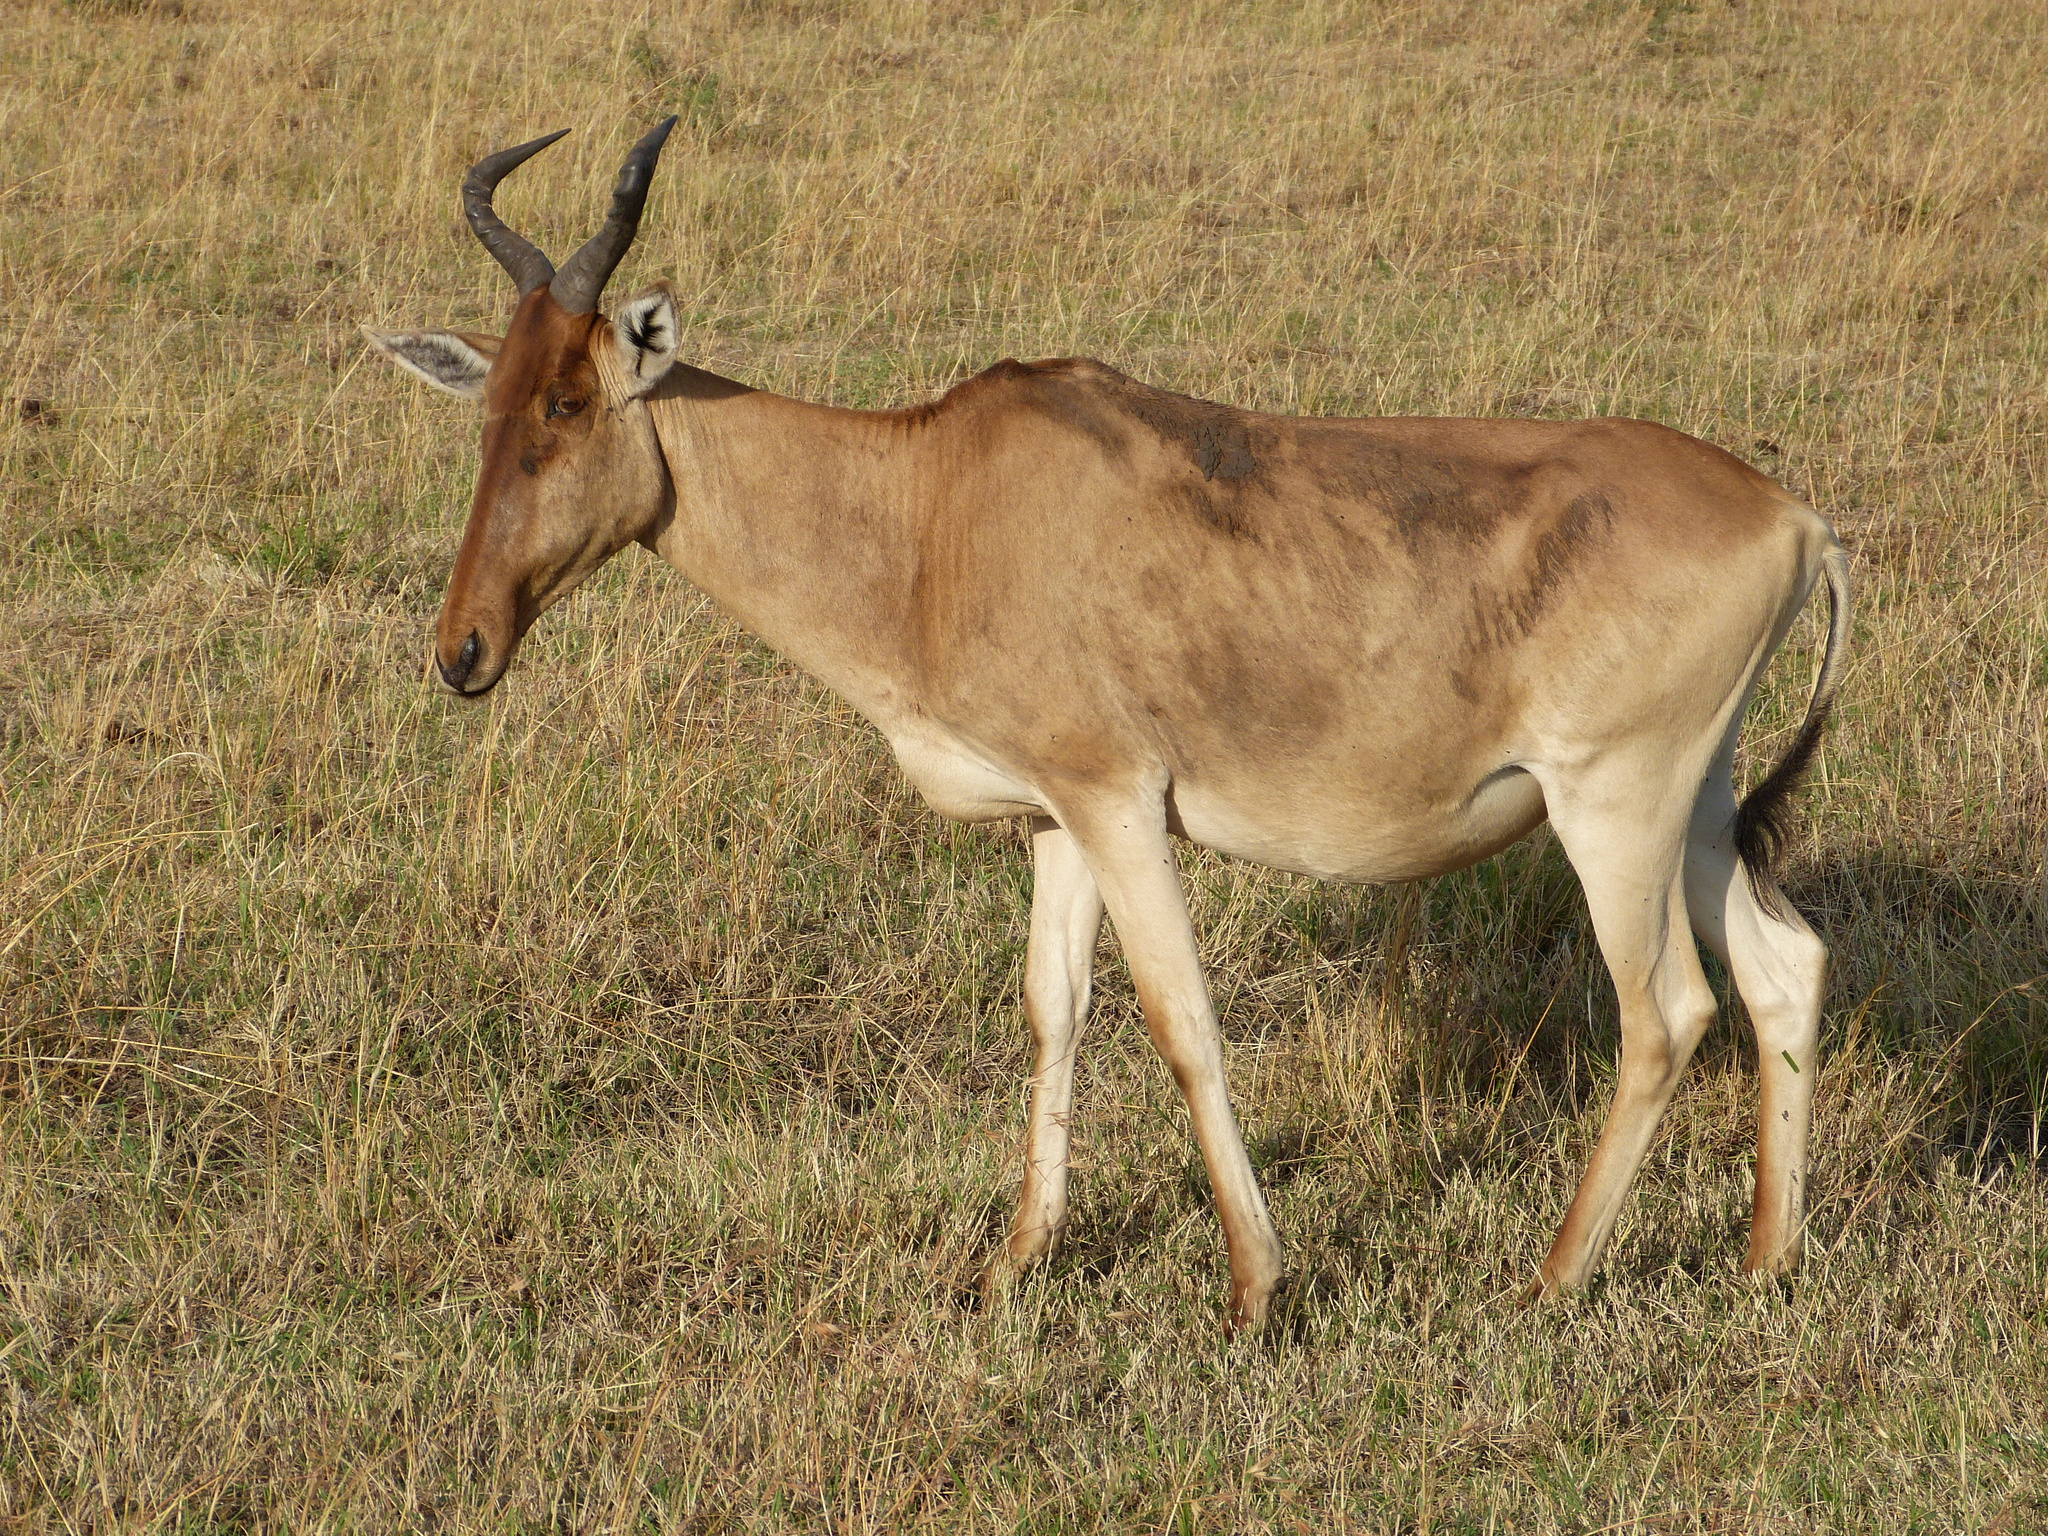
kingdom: Animalia
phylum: Chordata
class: Mammalia
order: Artiodactyla
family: Bovidae
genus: Alcelaphus
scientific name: Alcelaphus buselaphus
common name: Hartebeest
